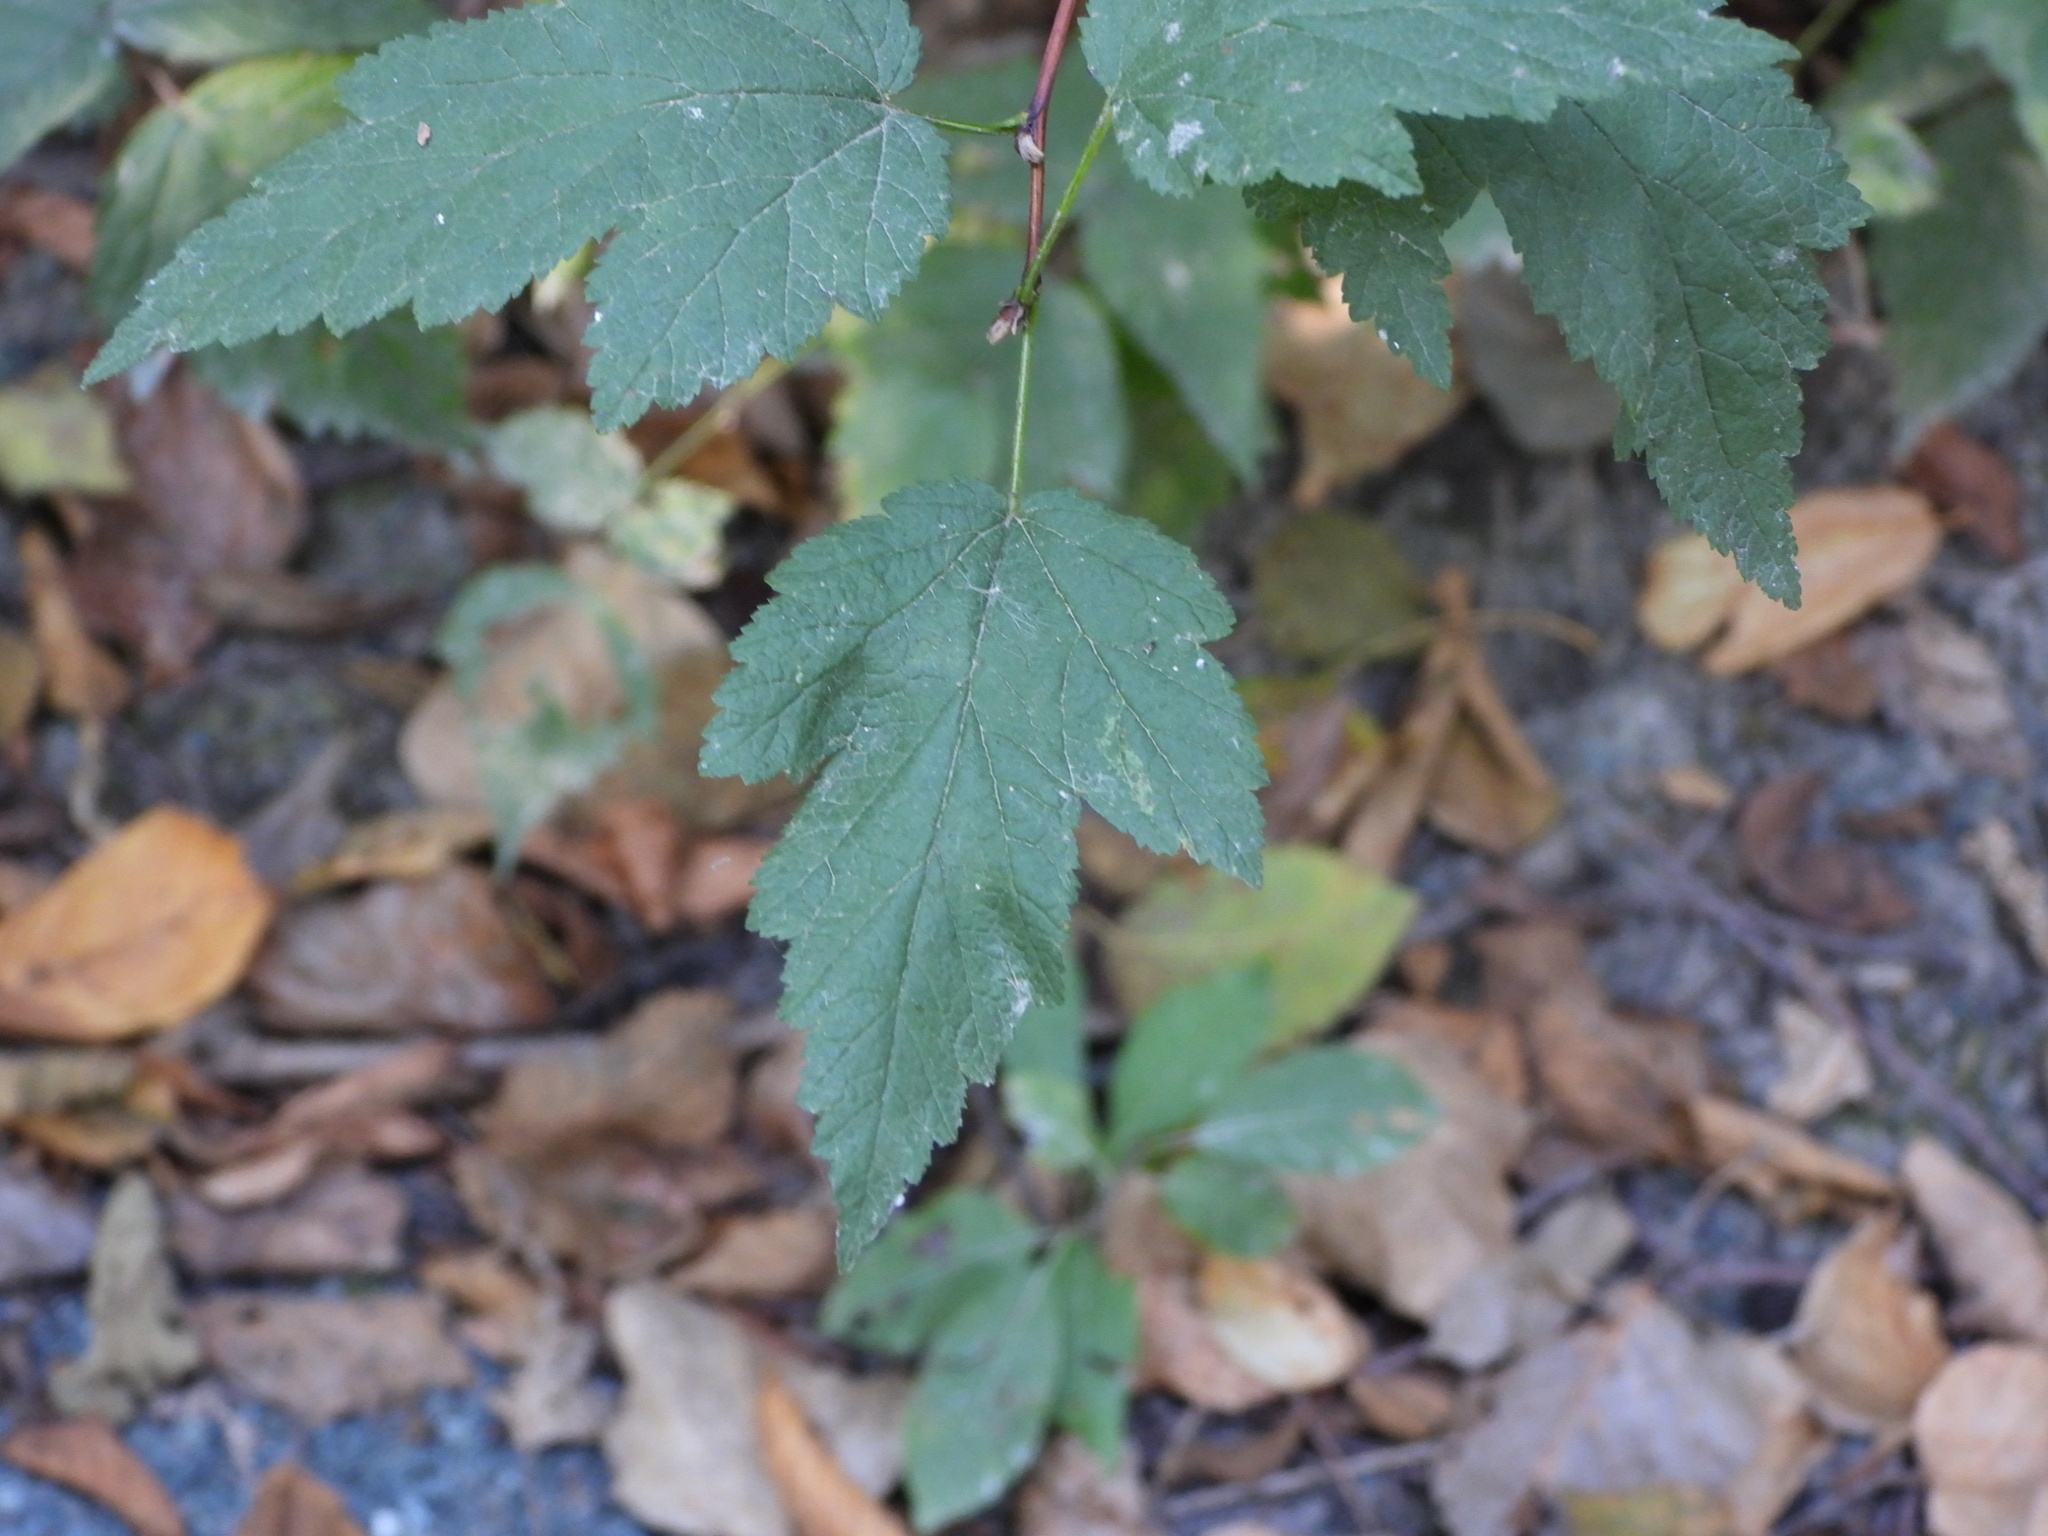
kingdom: Plantae
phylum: Tracheophyta
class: Magnoliopsida
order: Rosales
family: Rosaceae
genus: Physocarpus
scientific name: Physocarpus capitatus
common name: Pacific ninebark
